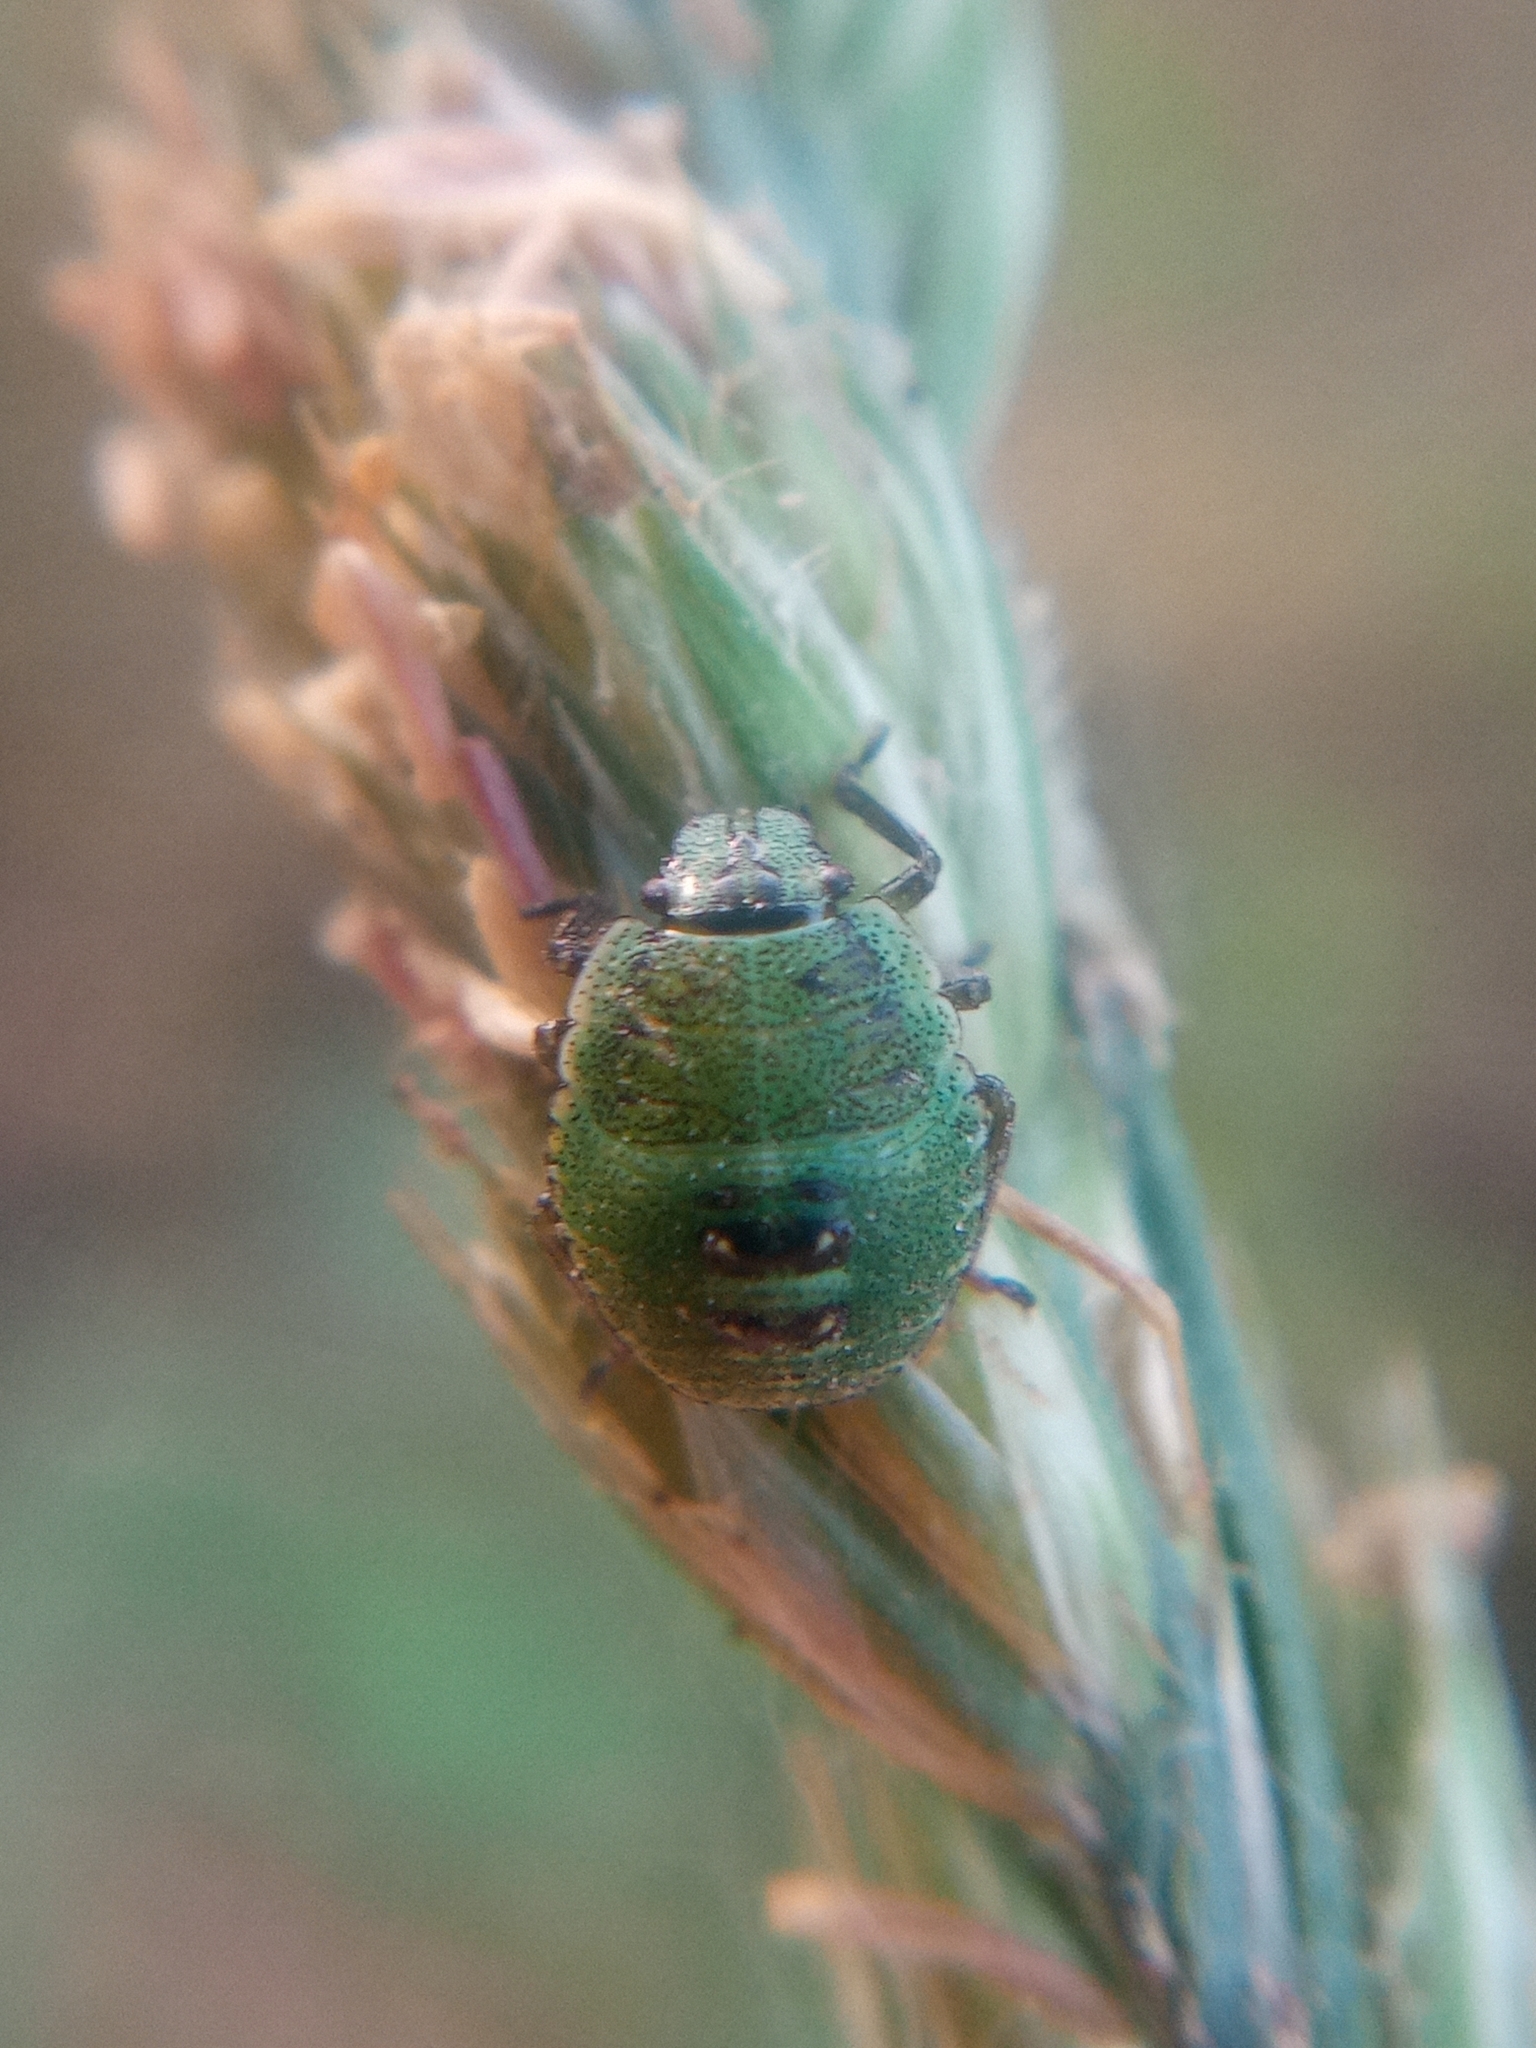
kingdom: Animalia
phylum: Arthropoda
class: Insecta
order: Hemiptera
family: Pentatomidae
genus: Palomena
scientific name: Palomena prasina
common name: Green shieldbug
